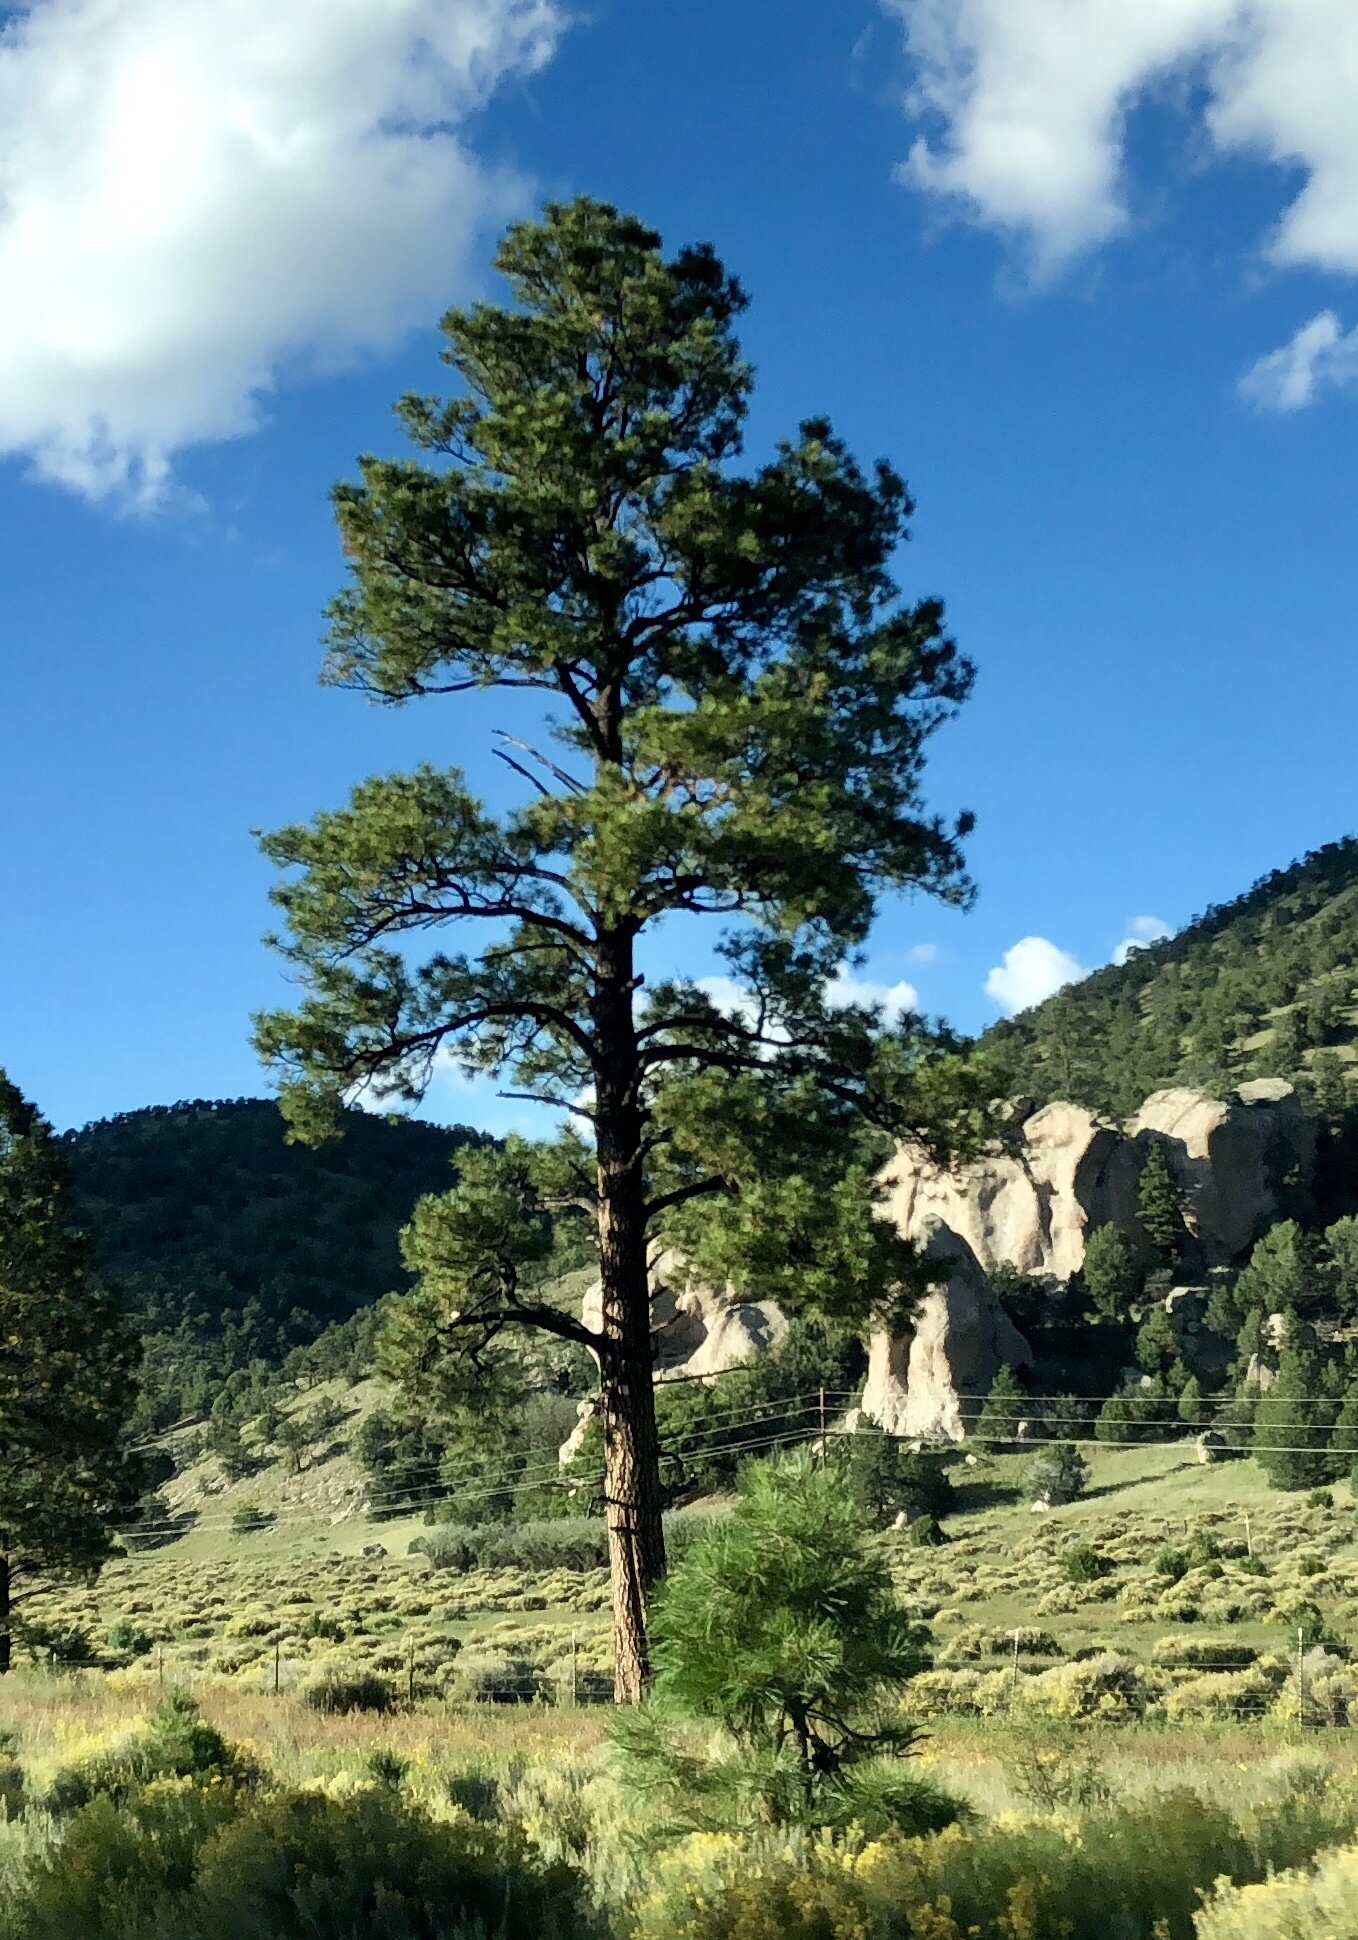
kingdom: Plantae
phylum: Tracheophyta
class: Pinopsida
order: Pinales
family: Pinaceae
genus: Pinus
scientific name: Pinus ponderosa
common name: Western yellow-pine
